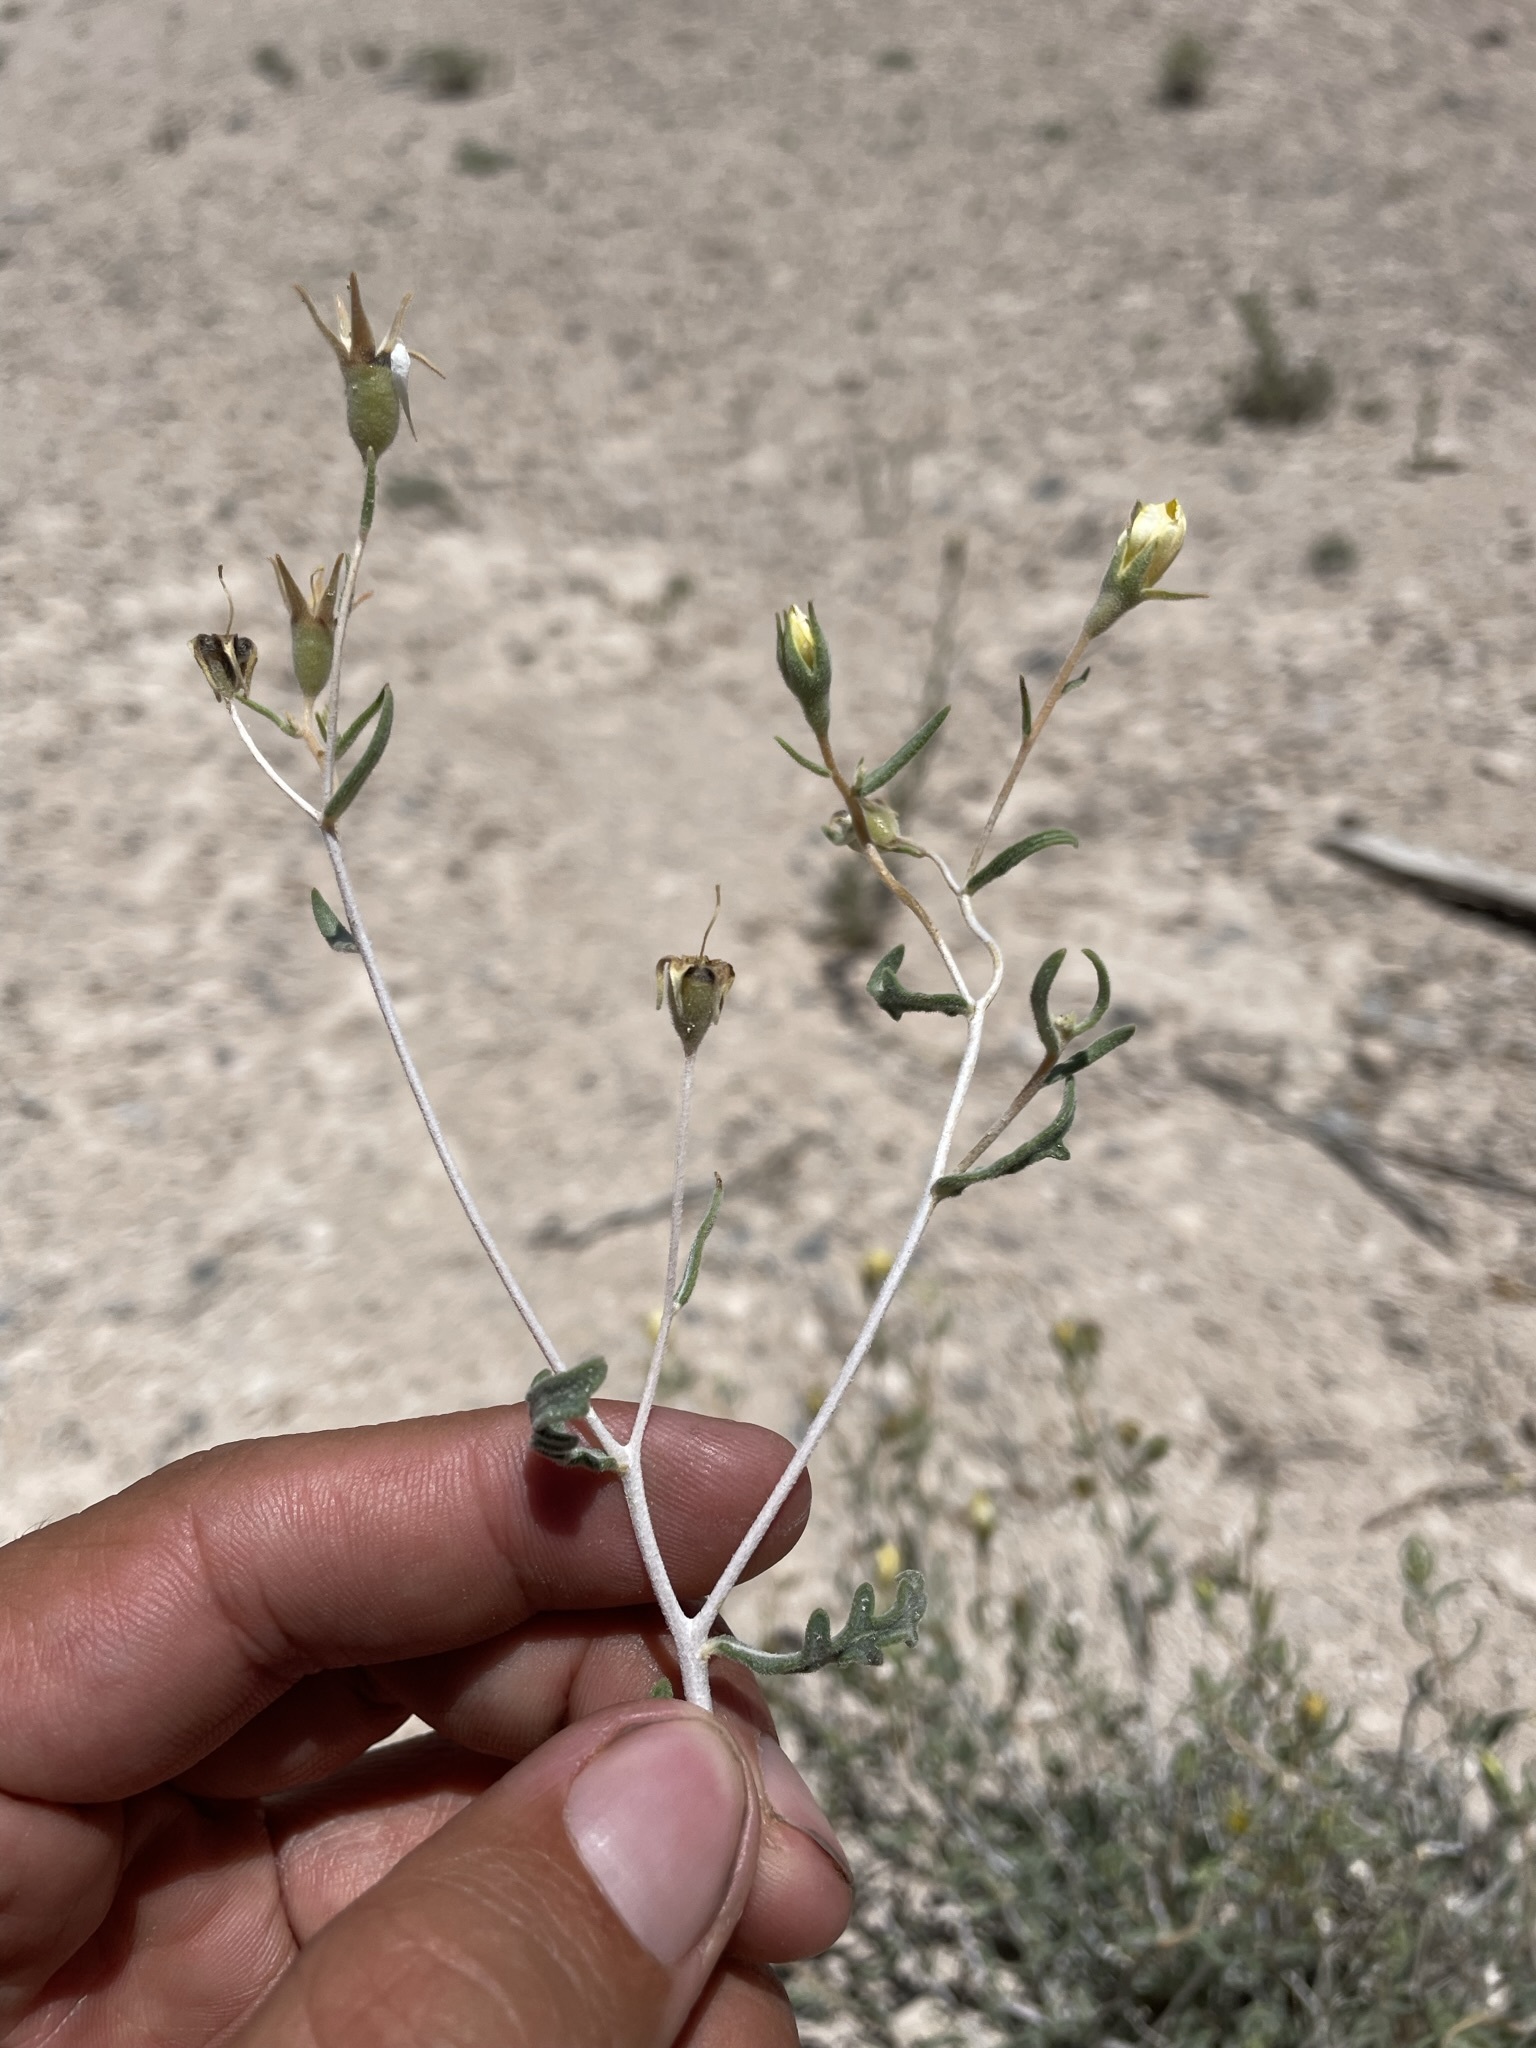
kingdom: Plantae
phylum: Tracheophyta
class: Magnoliopsida
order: Cornales
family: Loasaceae
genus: Mentzelia
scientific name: Mentzelia argillicola
